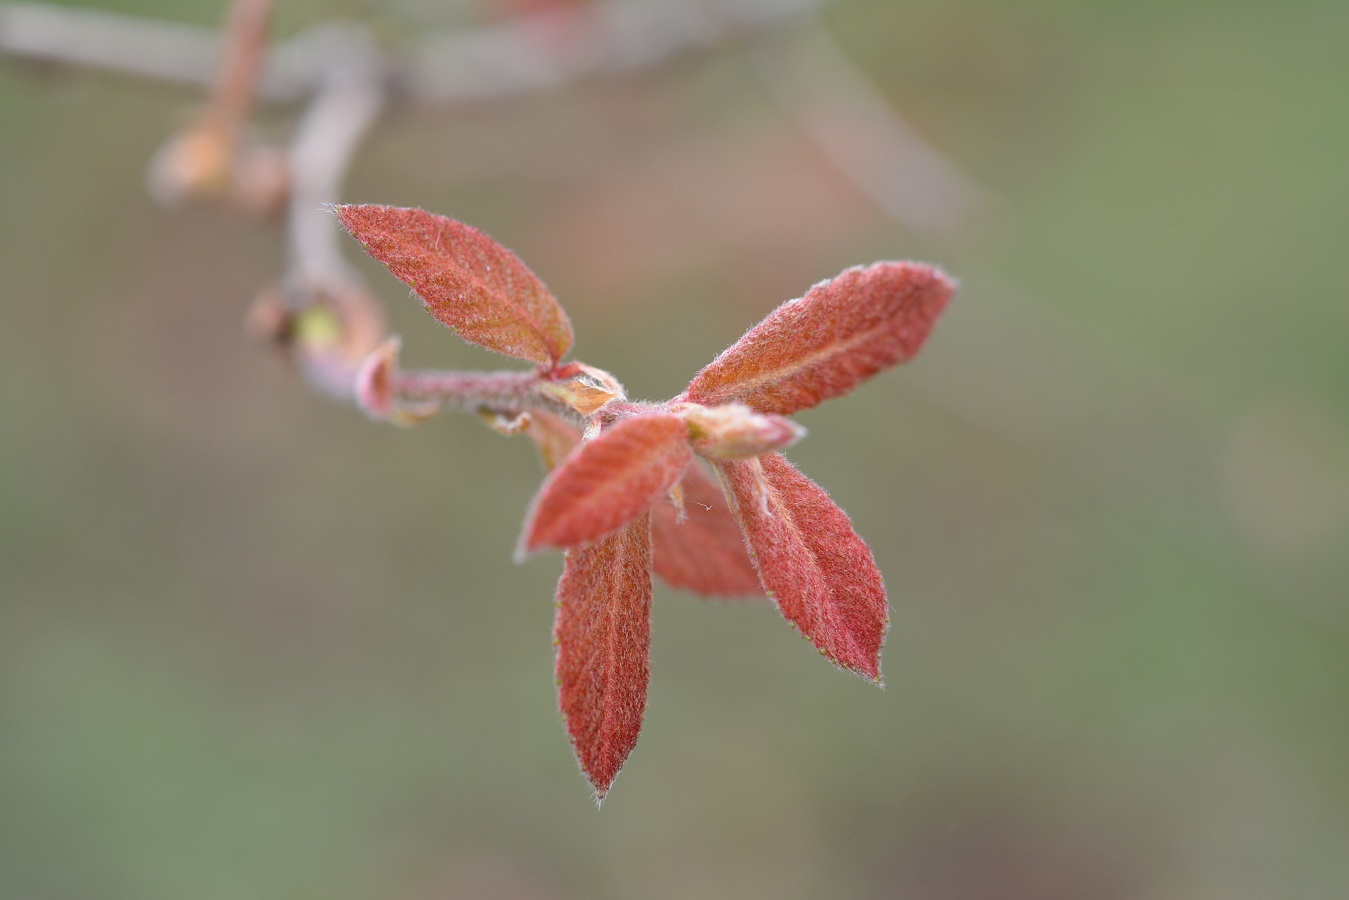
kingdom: Plantae
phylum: Tracheophyta
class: Magnoliopsida
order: Fagales
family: Fagaceae
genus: Quercus
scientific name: Quercus segoviensis
